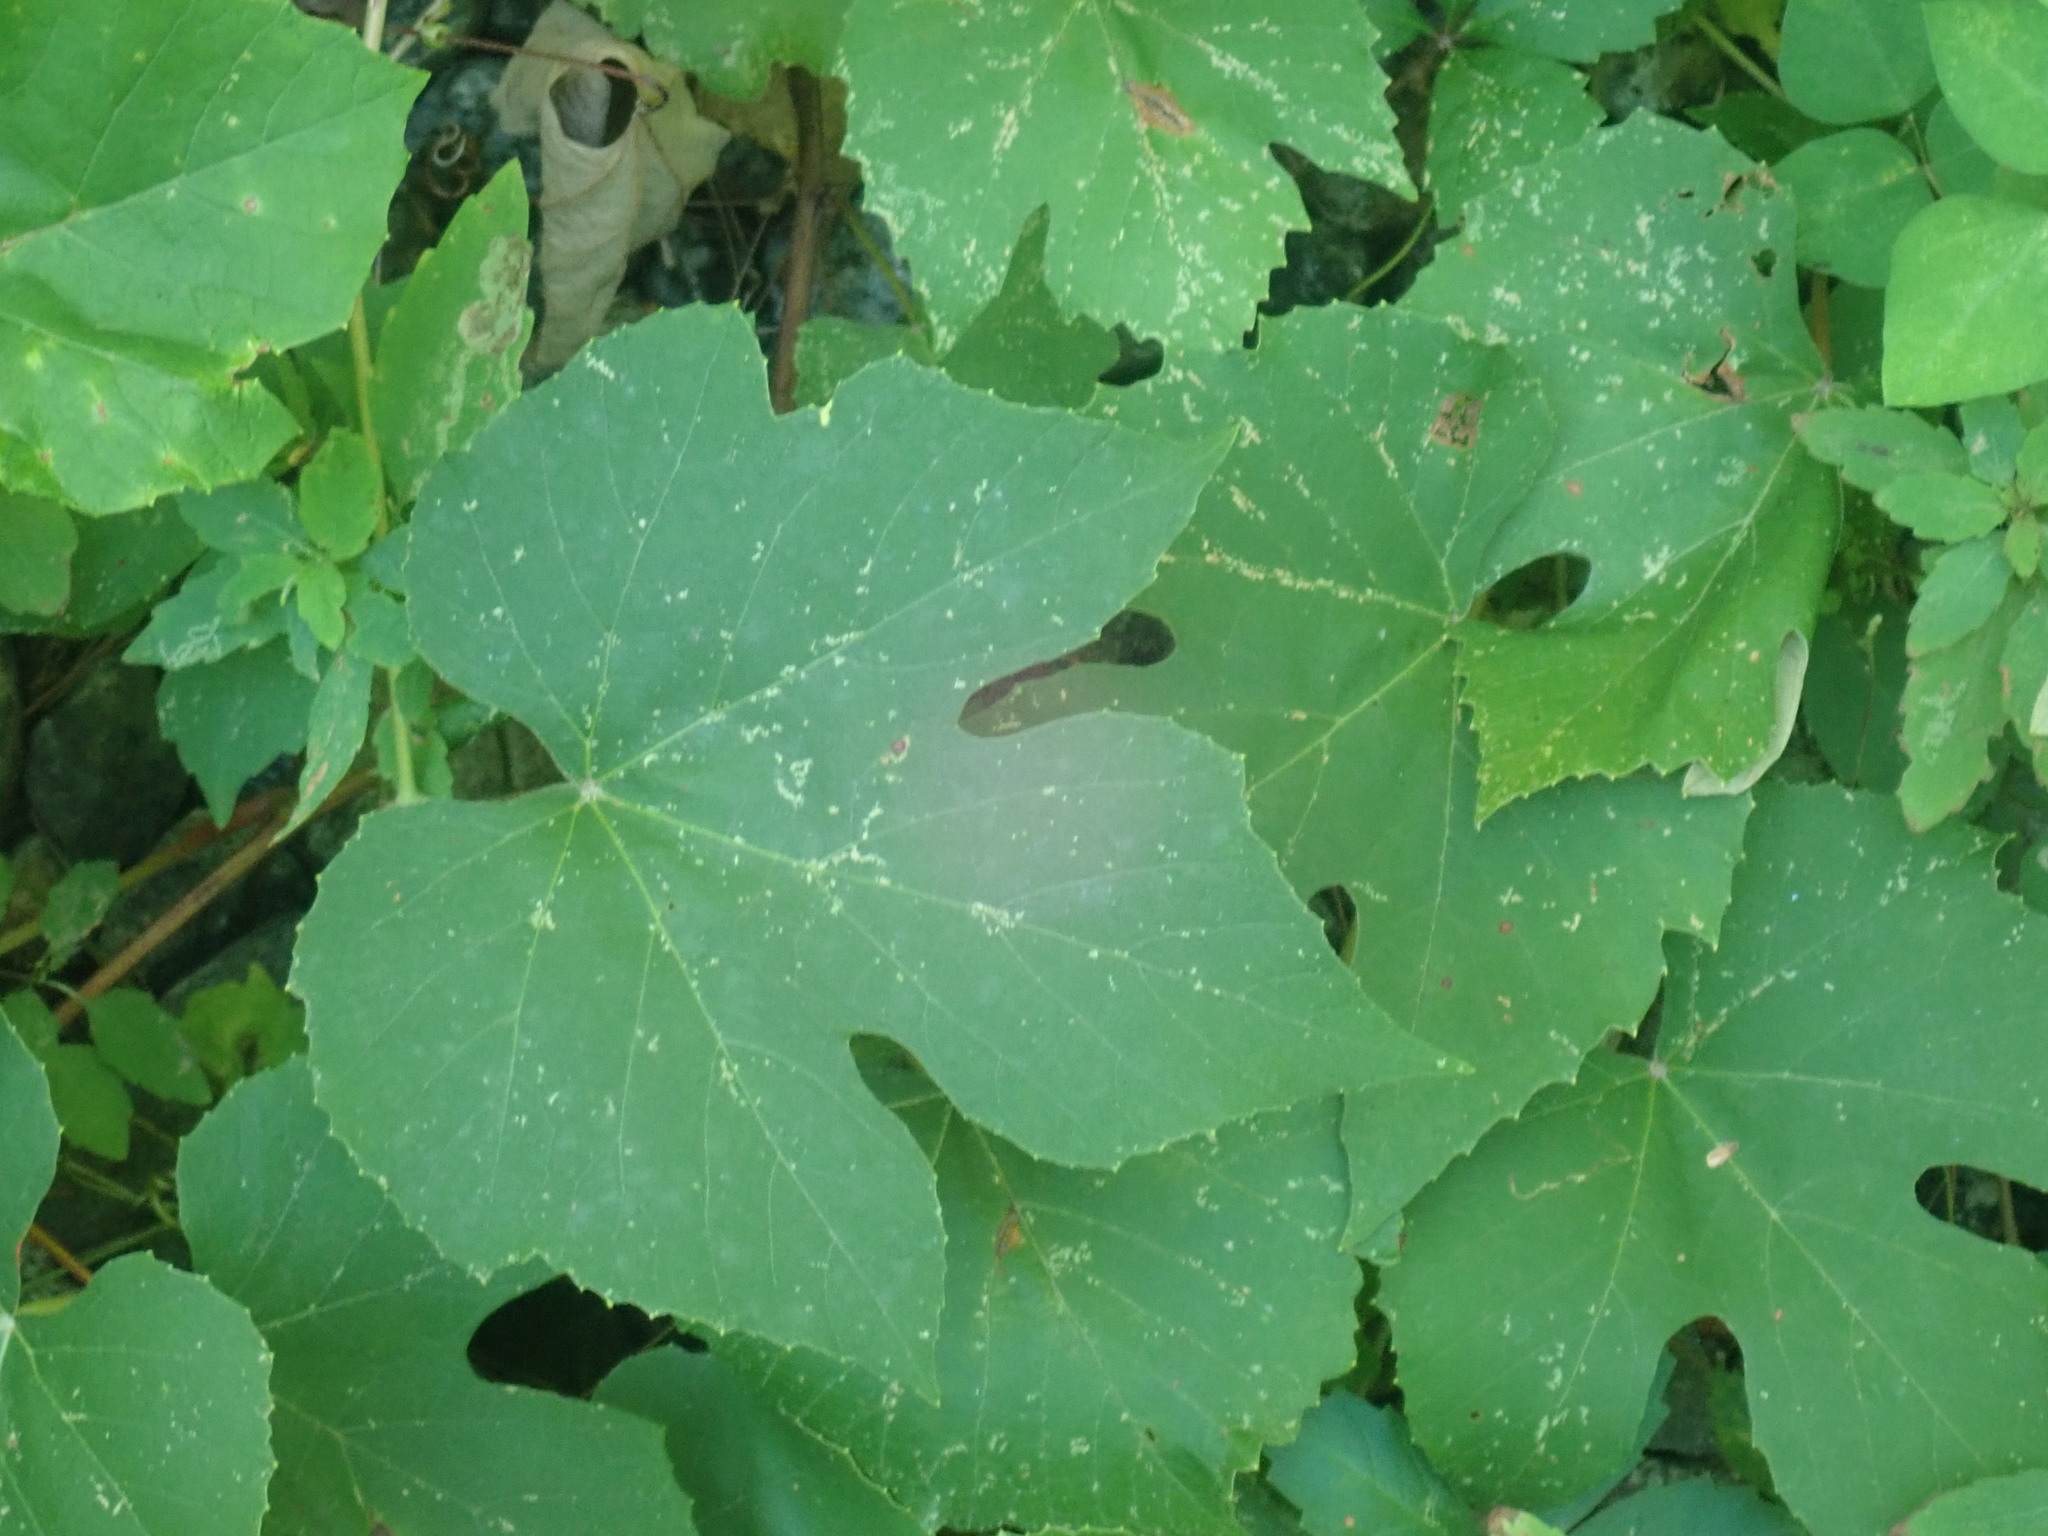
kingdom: Plantae
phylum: Tracheophyta
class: Magnoliopsida
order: Vitales
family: Vitaceae
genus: Vitis
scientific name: Vitis
